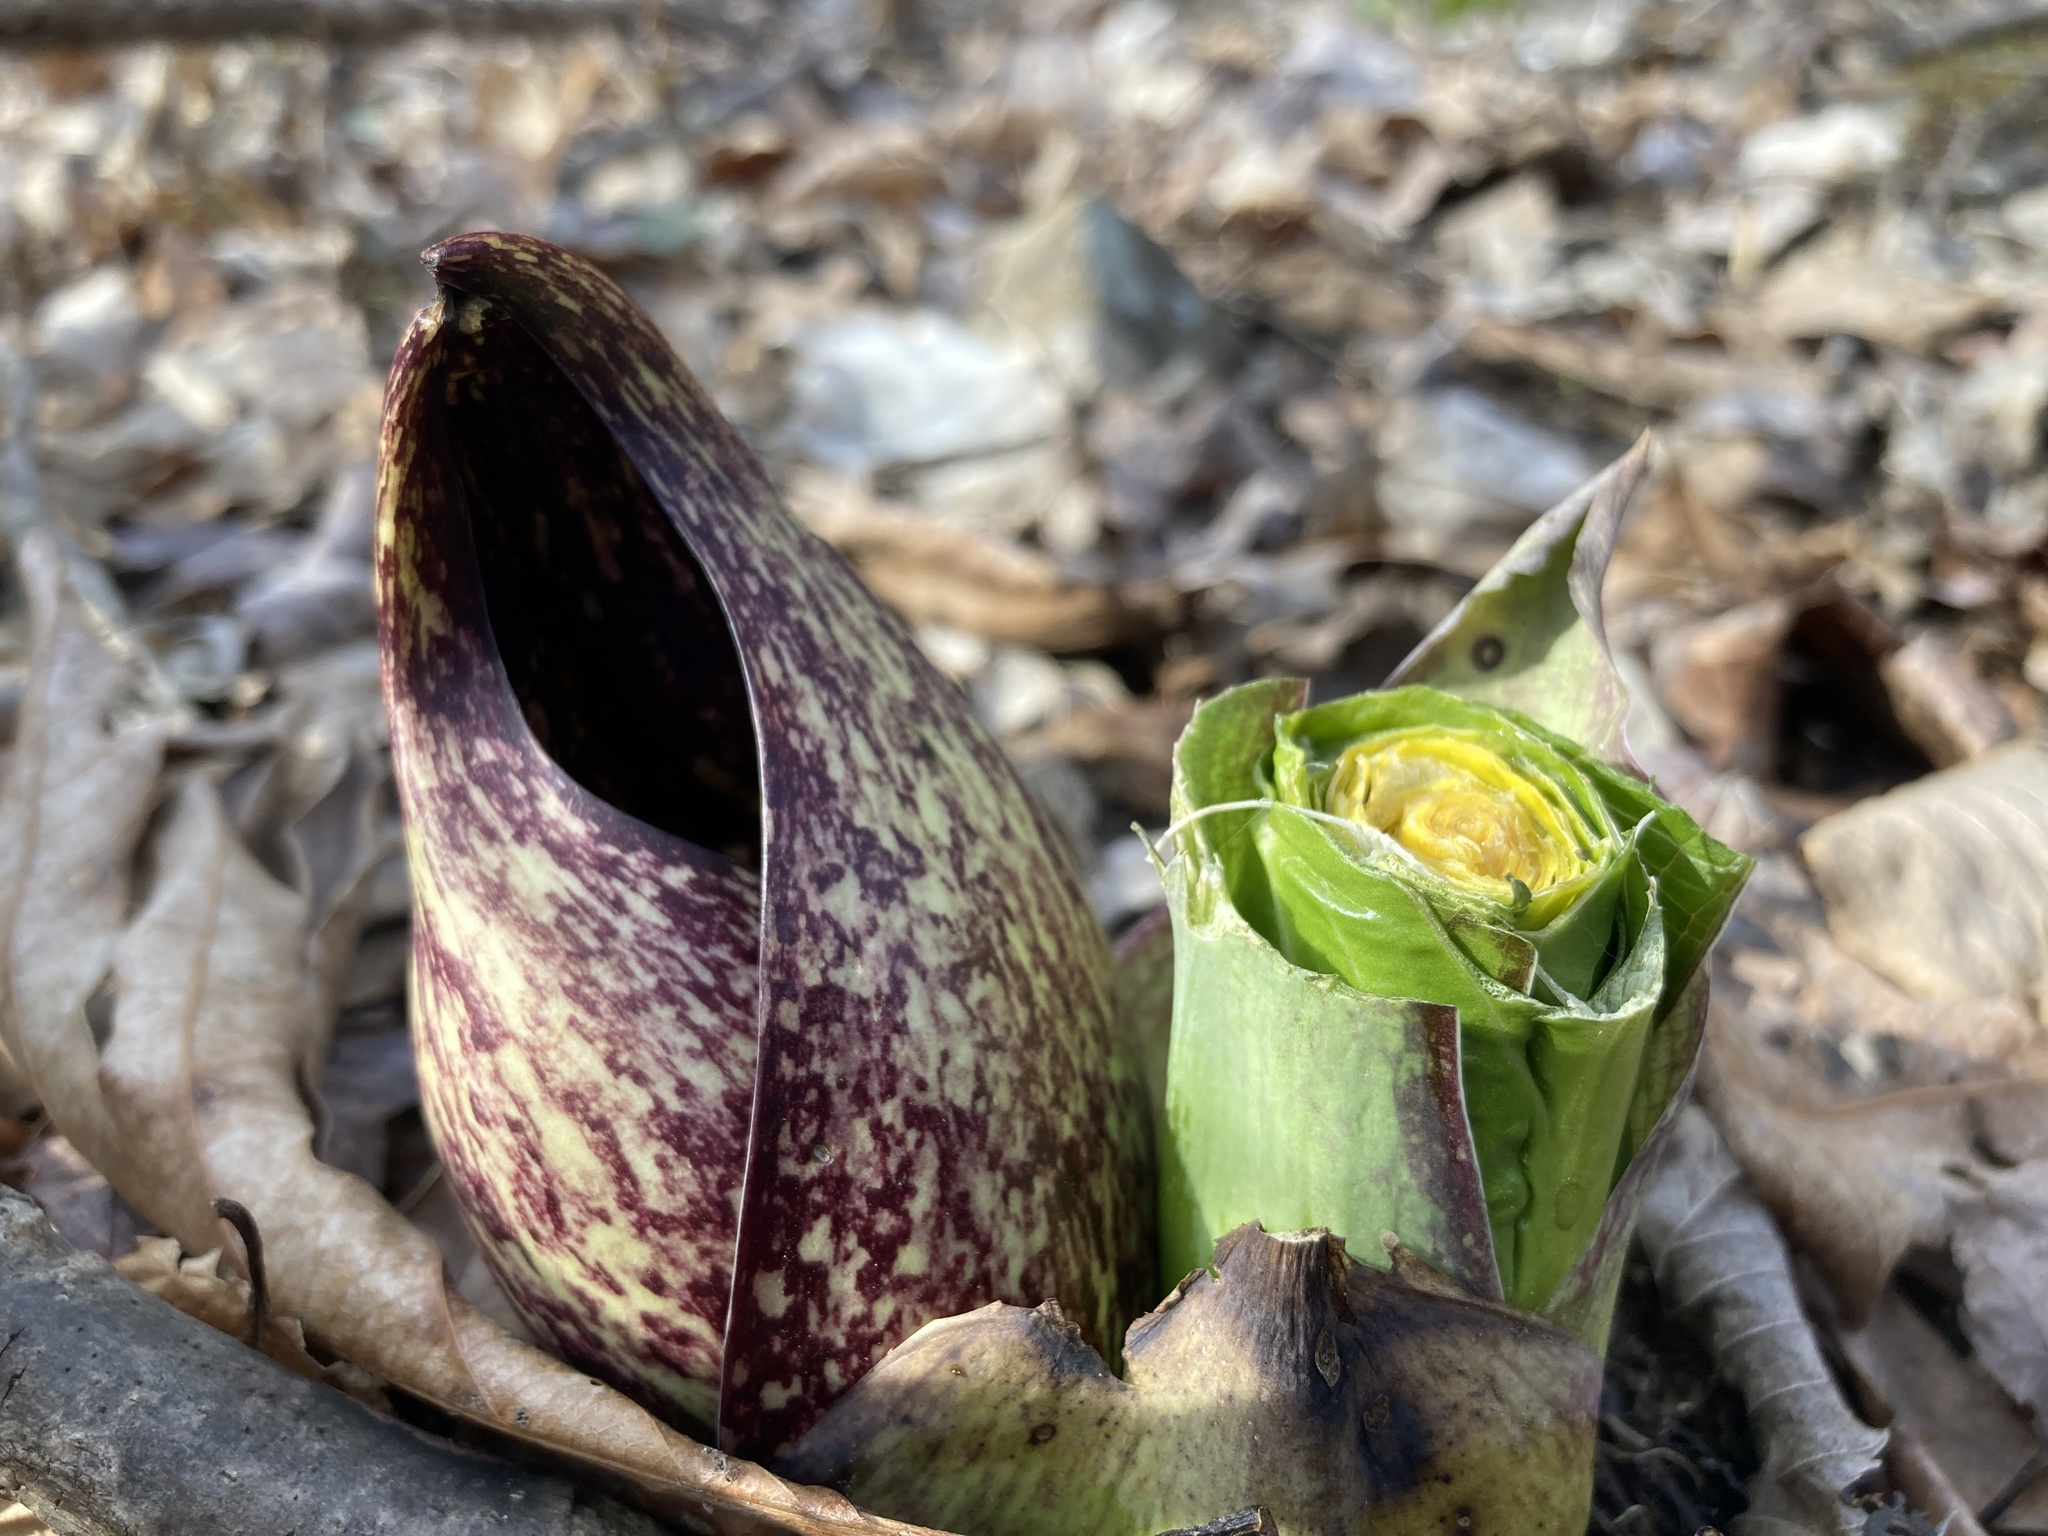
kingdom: Plantae
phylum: Tracheophyta
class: Liliopsida
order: Alismatales
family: Araceae
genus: Symplocarpus
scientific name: Symplocarpus foetidus
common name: Eastern skunk cabbage
